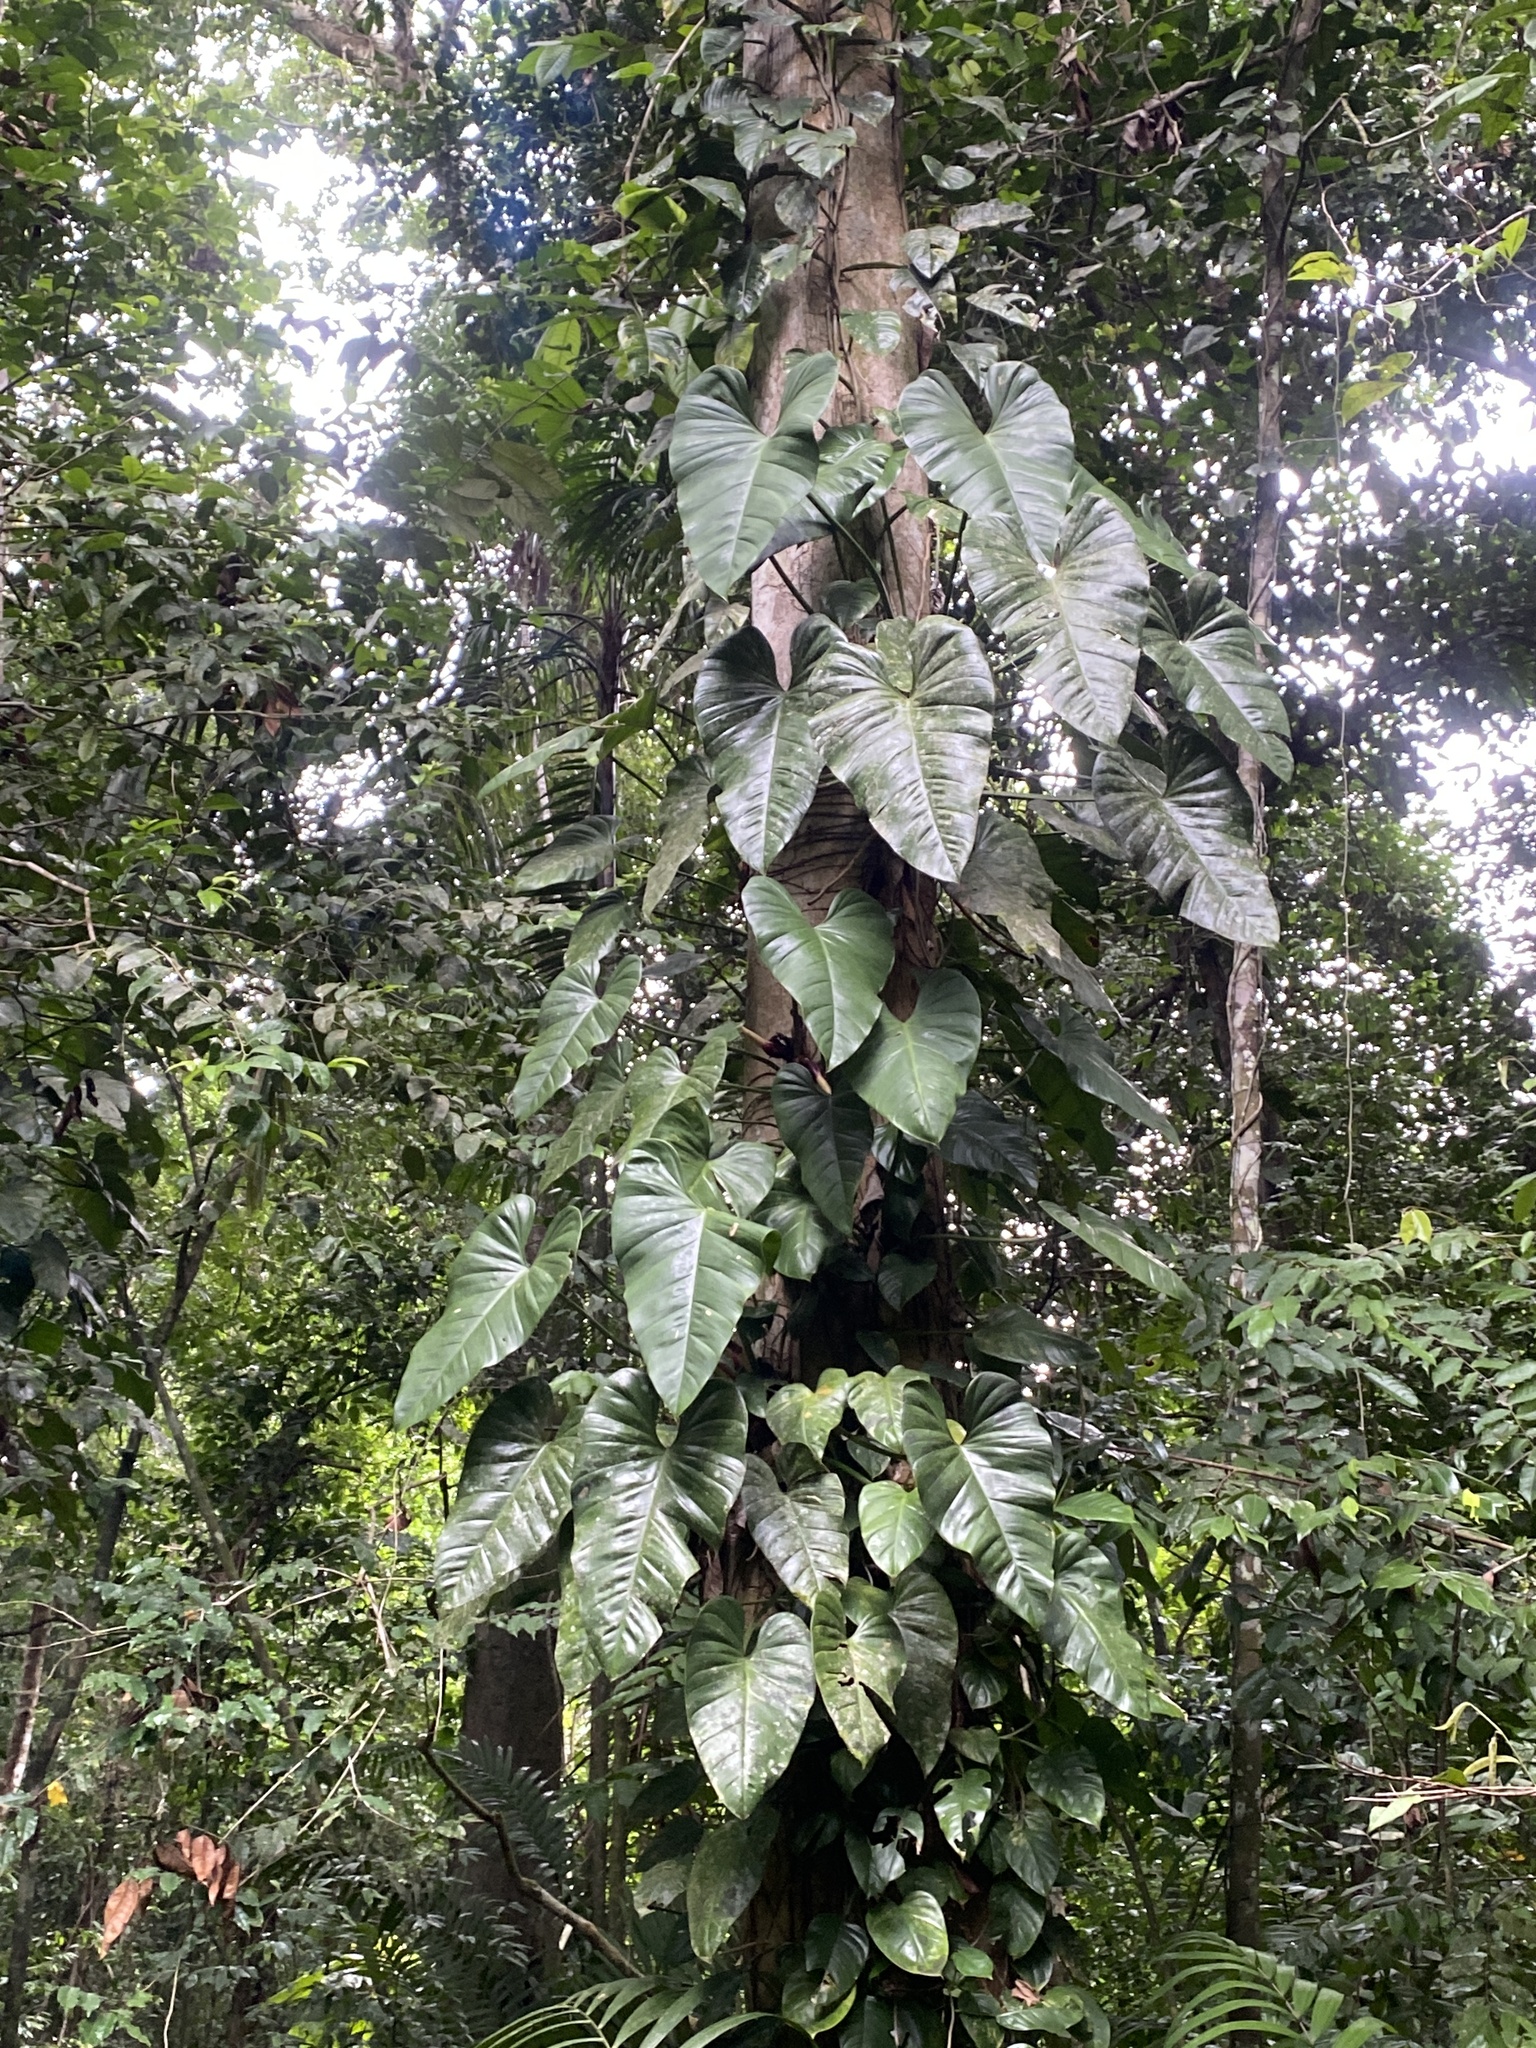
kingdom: Plantae
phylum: Tracheophyta
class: Liliopsida
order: Alismatales
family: Araceae
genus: Philodendron
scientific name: Philodendron fragrantissimum
